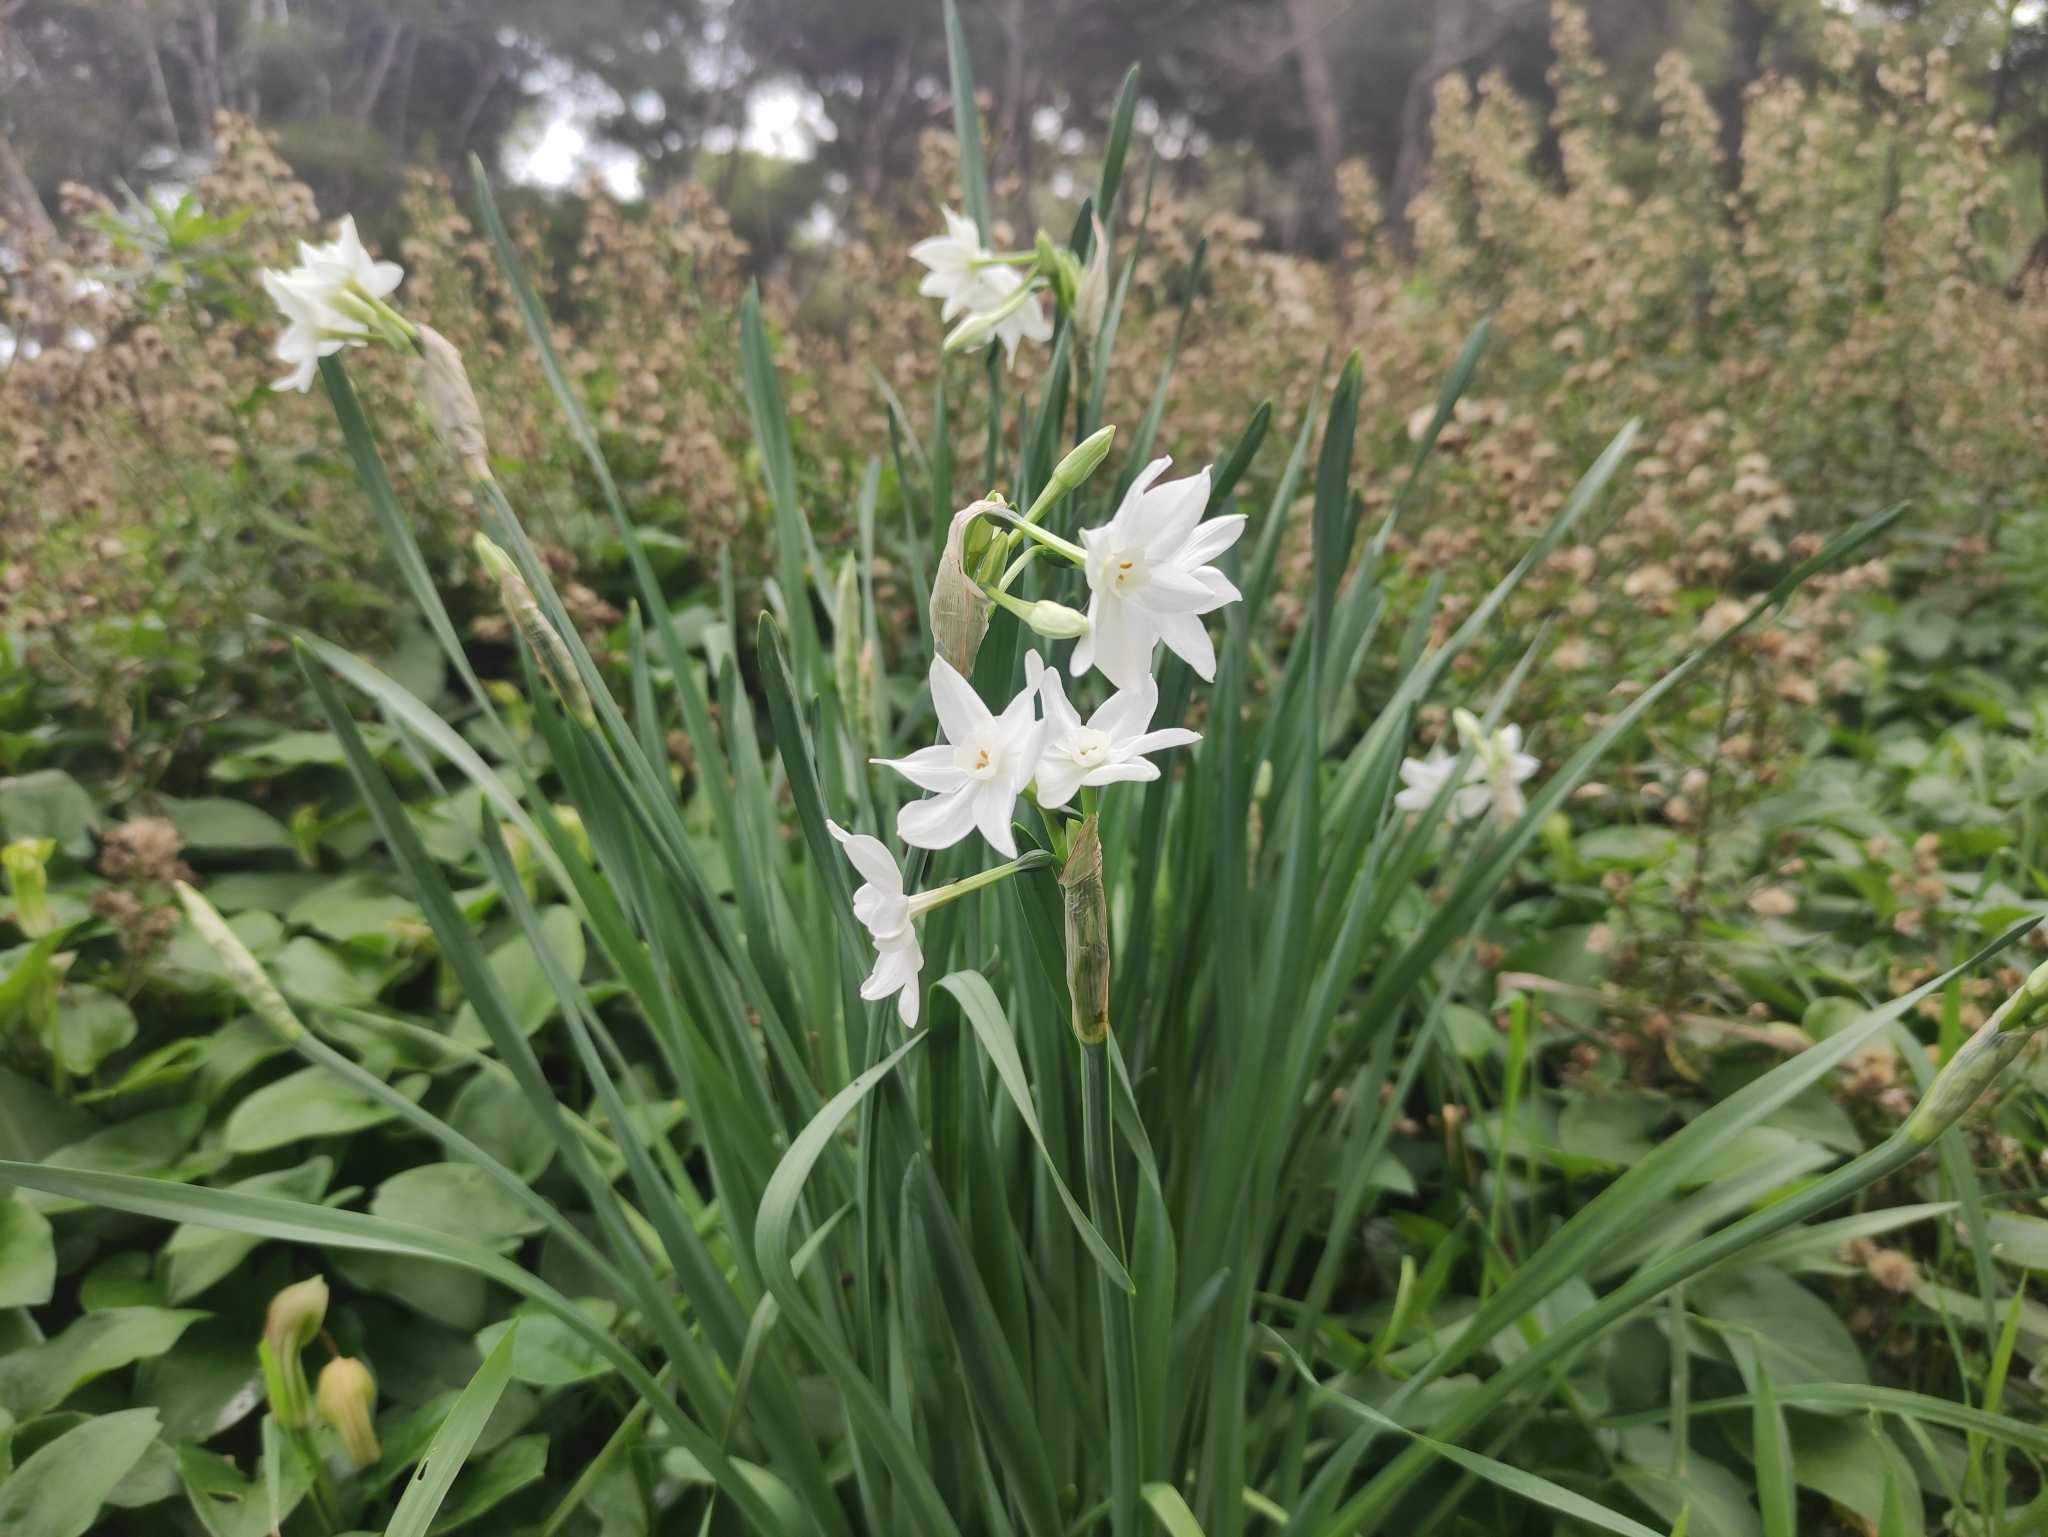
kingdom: Plantae
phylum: Tracheophyta
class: Liliopsida
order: Asparagales
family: Amaryllidaceae
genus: Narcissus
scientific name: Narcissus papyraceus
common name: Paper-white daffodil
